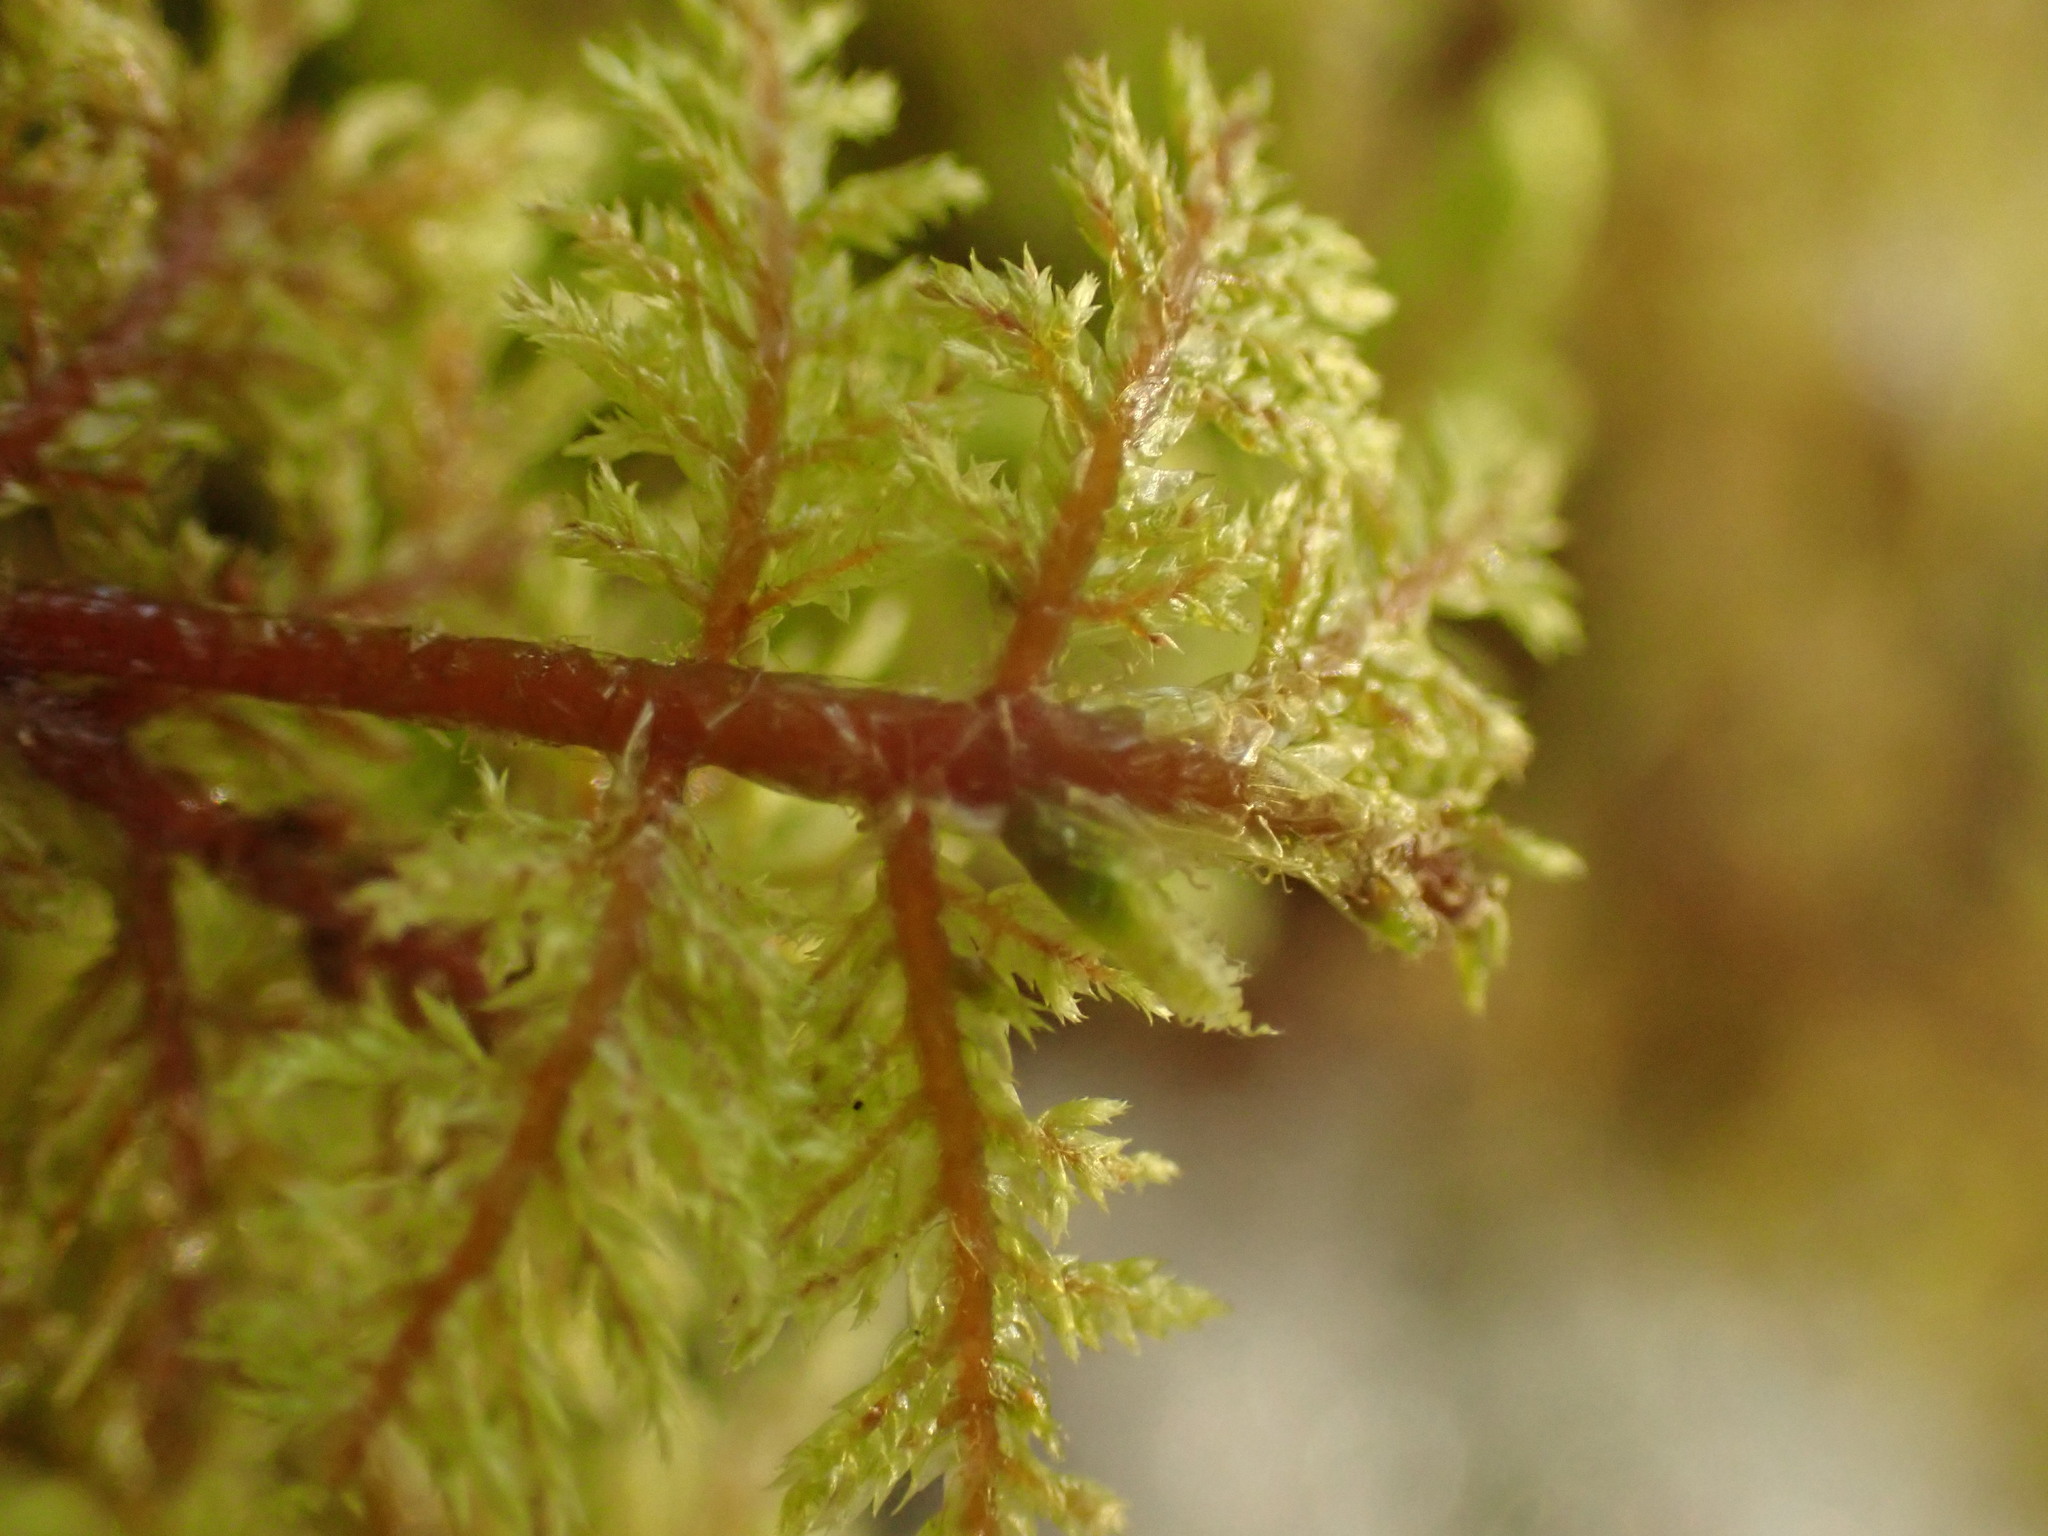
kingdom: Plantae
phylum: Bryophyta
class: Bryopsida
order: Hypnales
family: Hylocomiaceae
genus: Hylocomium
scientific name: Hylocomium splendens
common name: Stairstep moss
